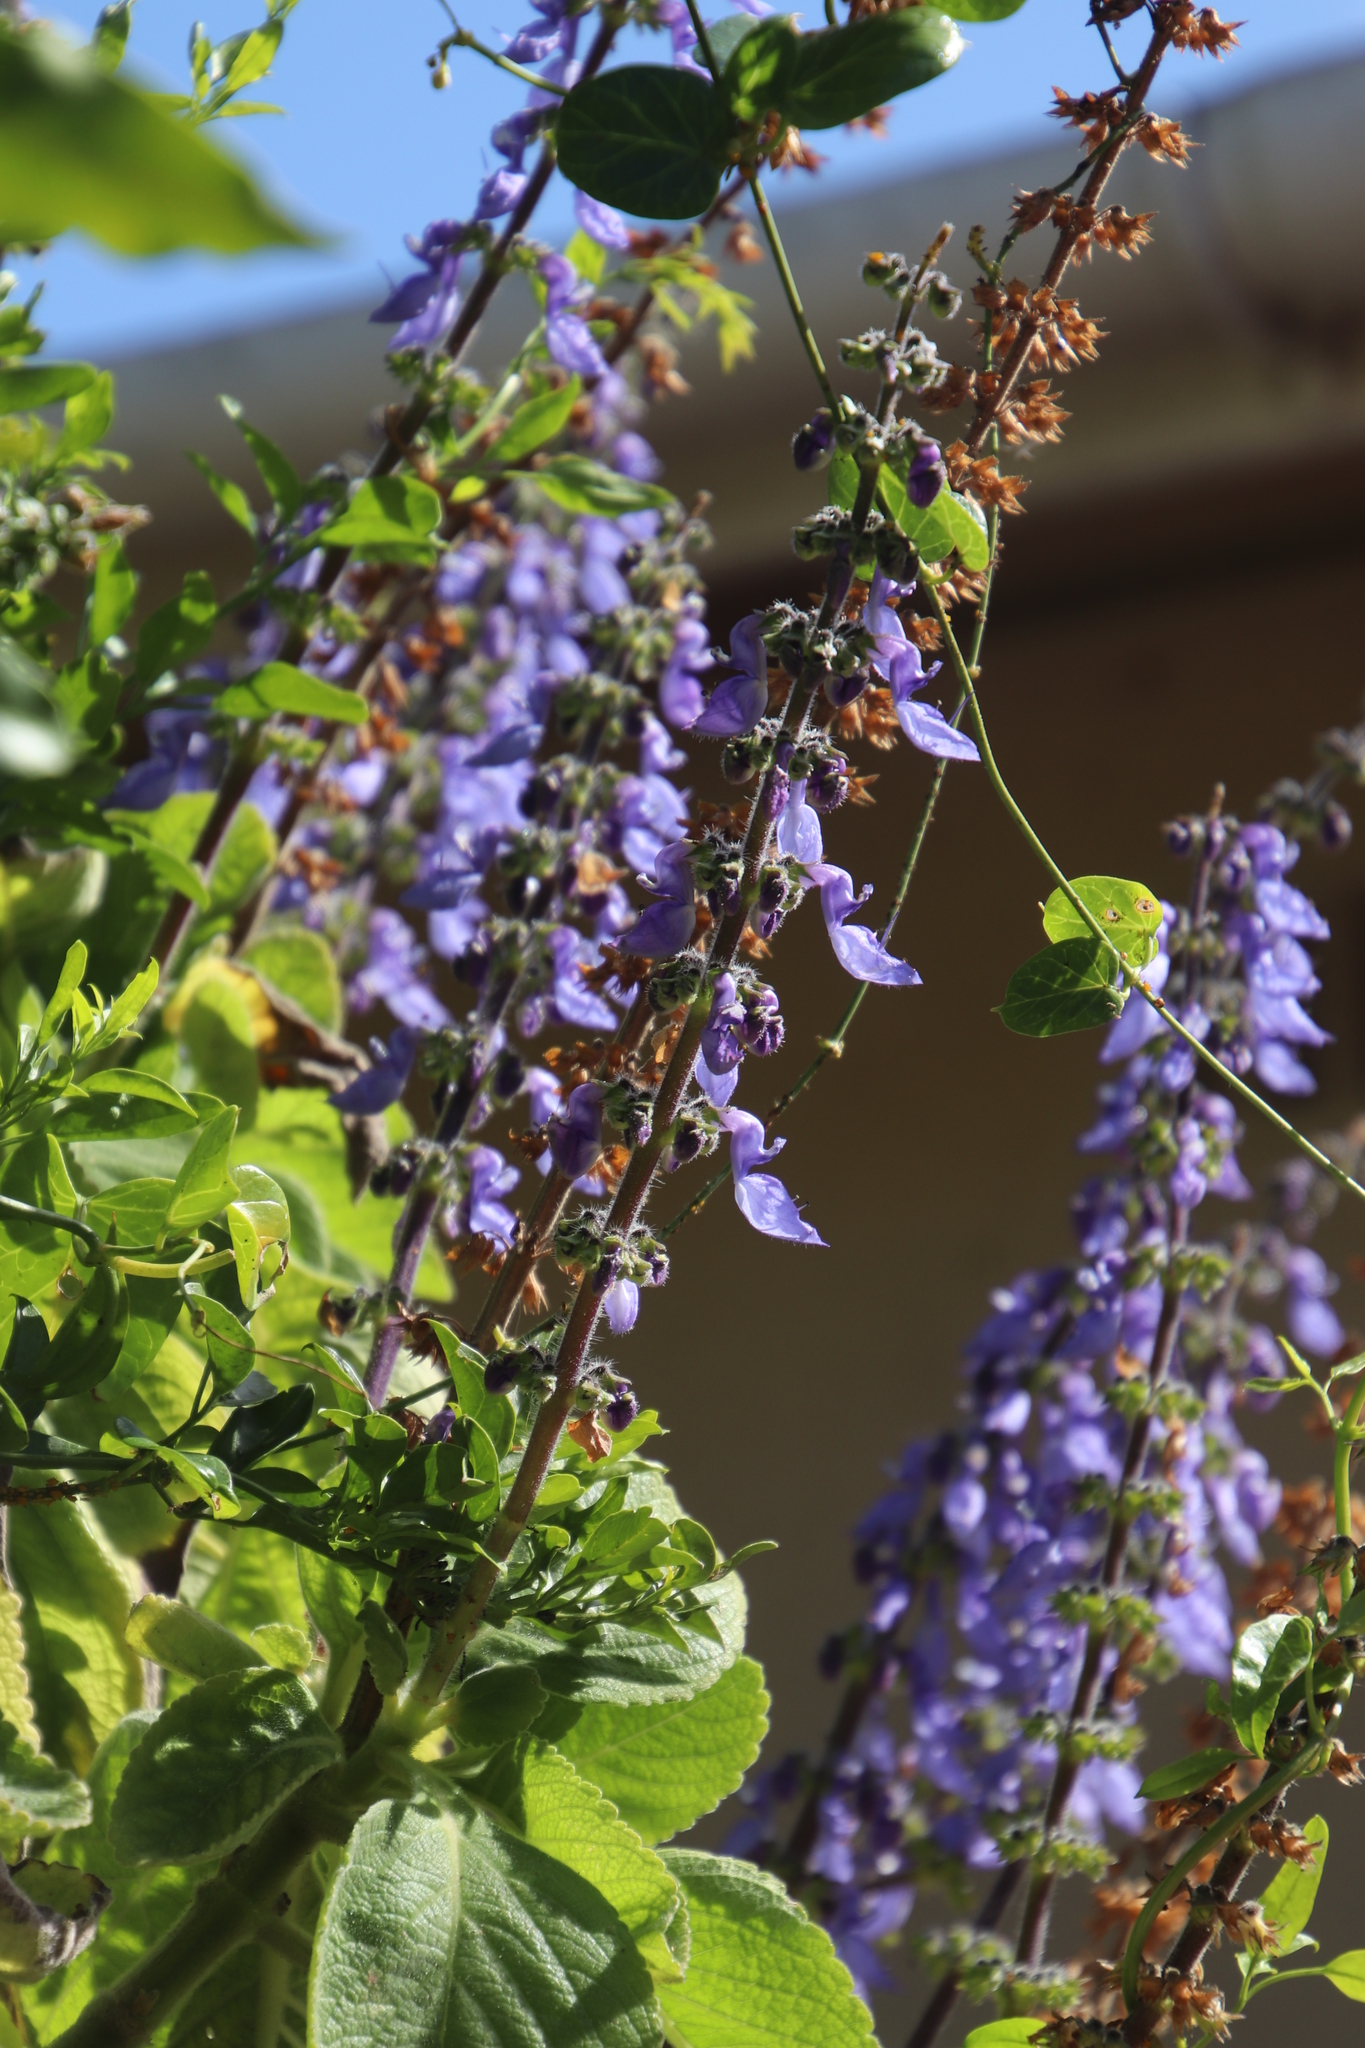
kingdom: Plantae
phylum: Tracheophyta
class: Magnoliopsida
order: Lamiales
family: Lamiaceae
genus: Coleus
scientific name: Coleus barbatus
